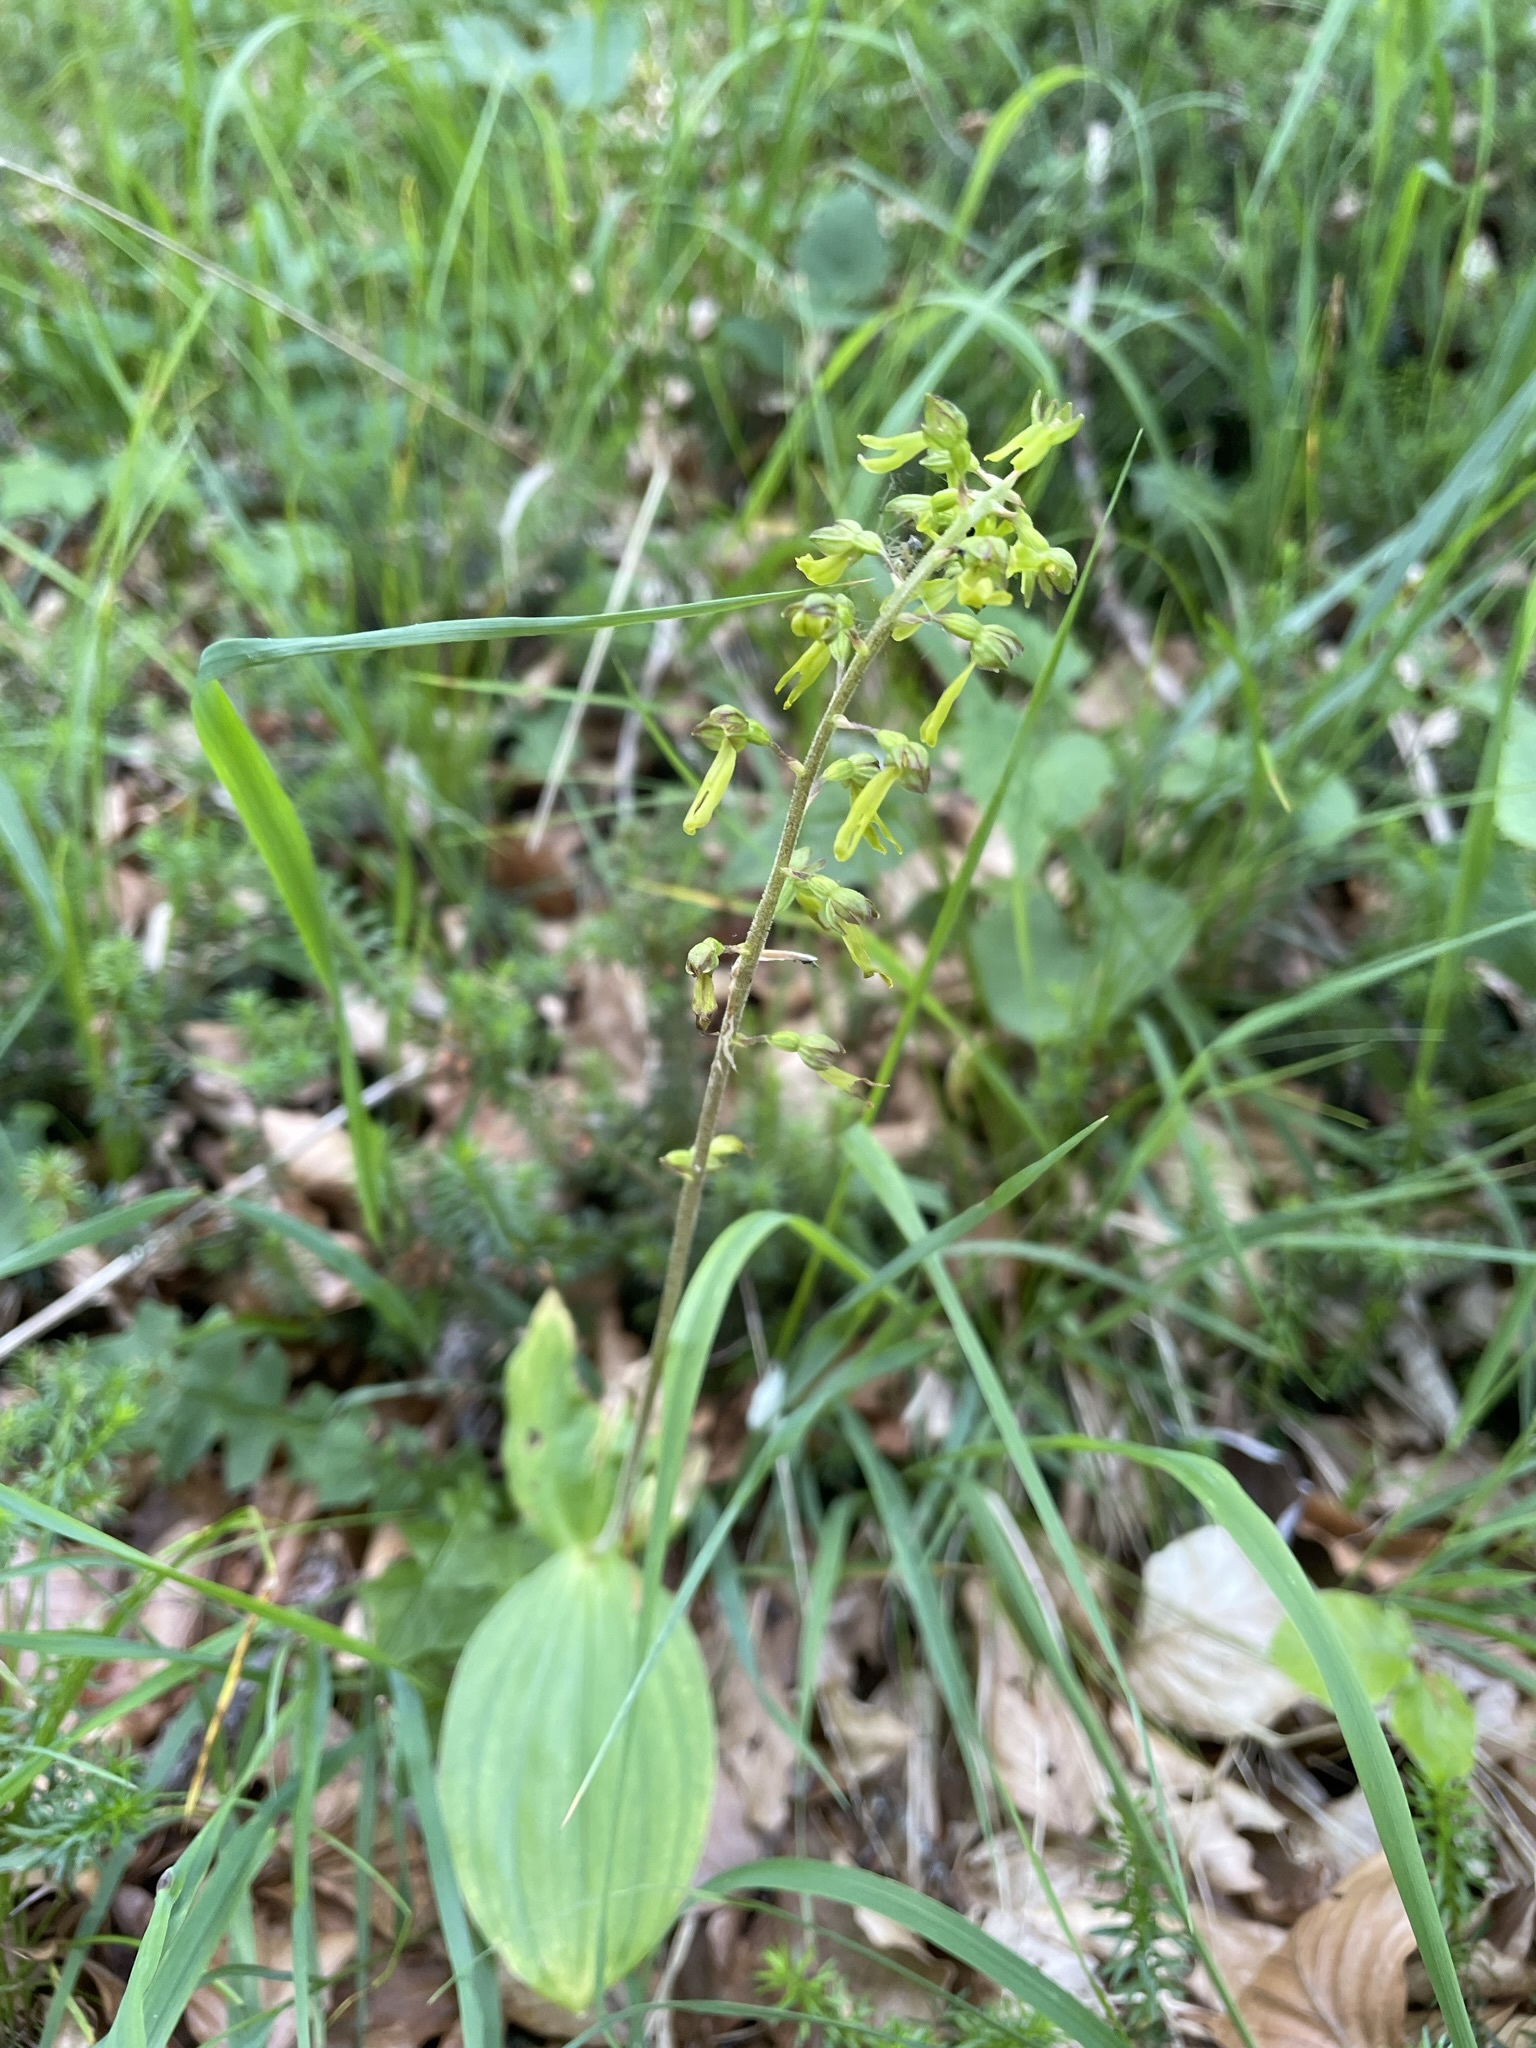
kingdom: Plantae
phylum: Tracheophyta
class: Liliopsida
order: Asparagales
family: Orchidaceae
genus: Neottia
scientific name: Neottia ovata
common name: Common twayblade
